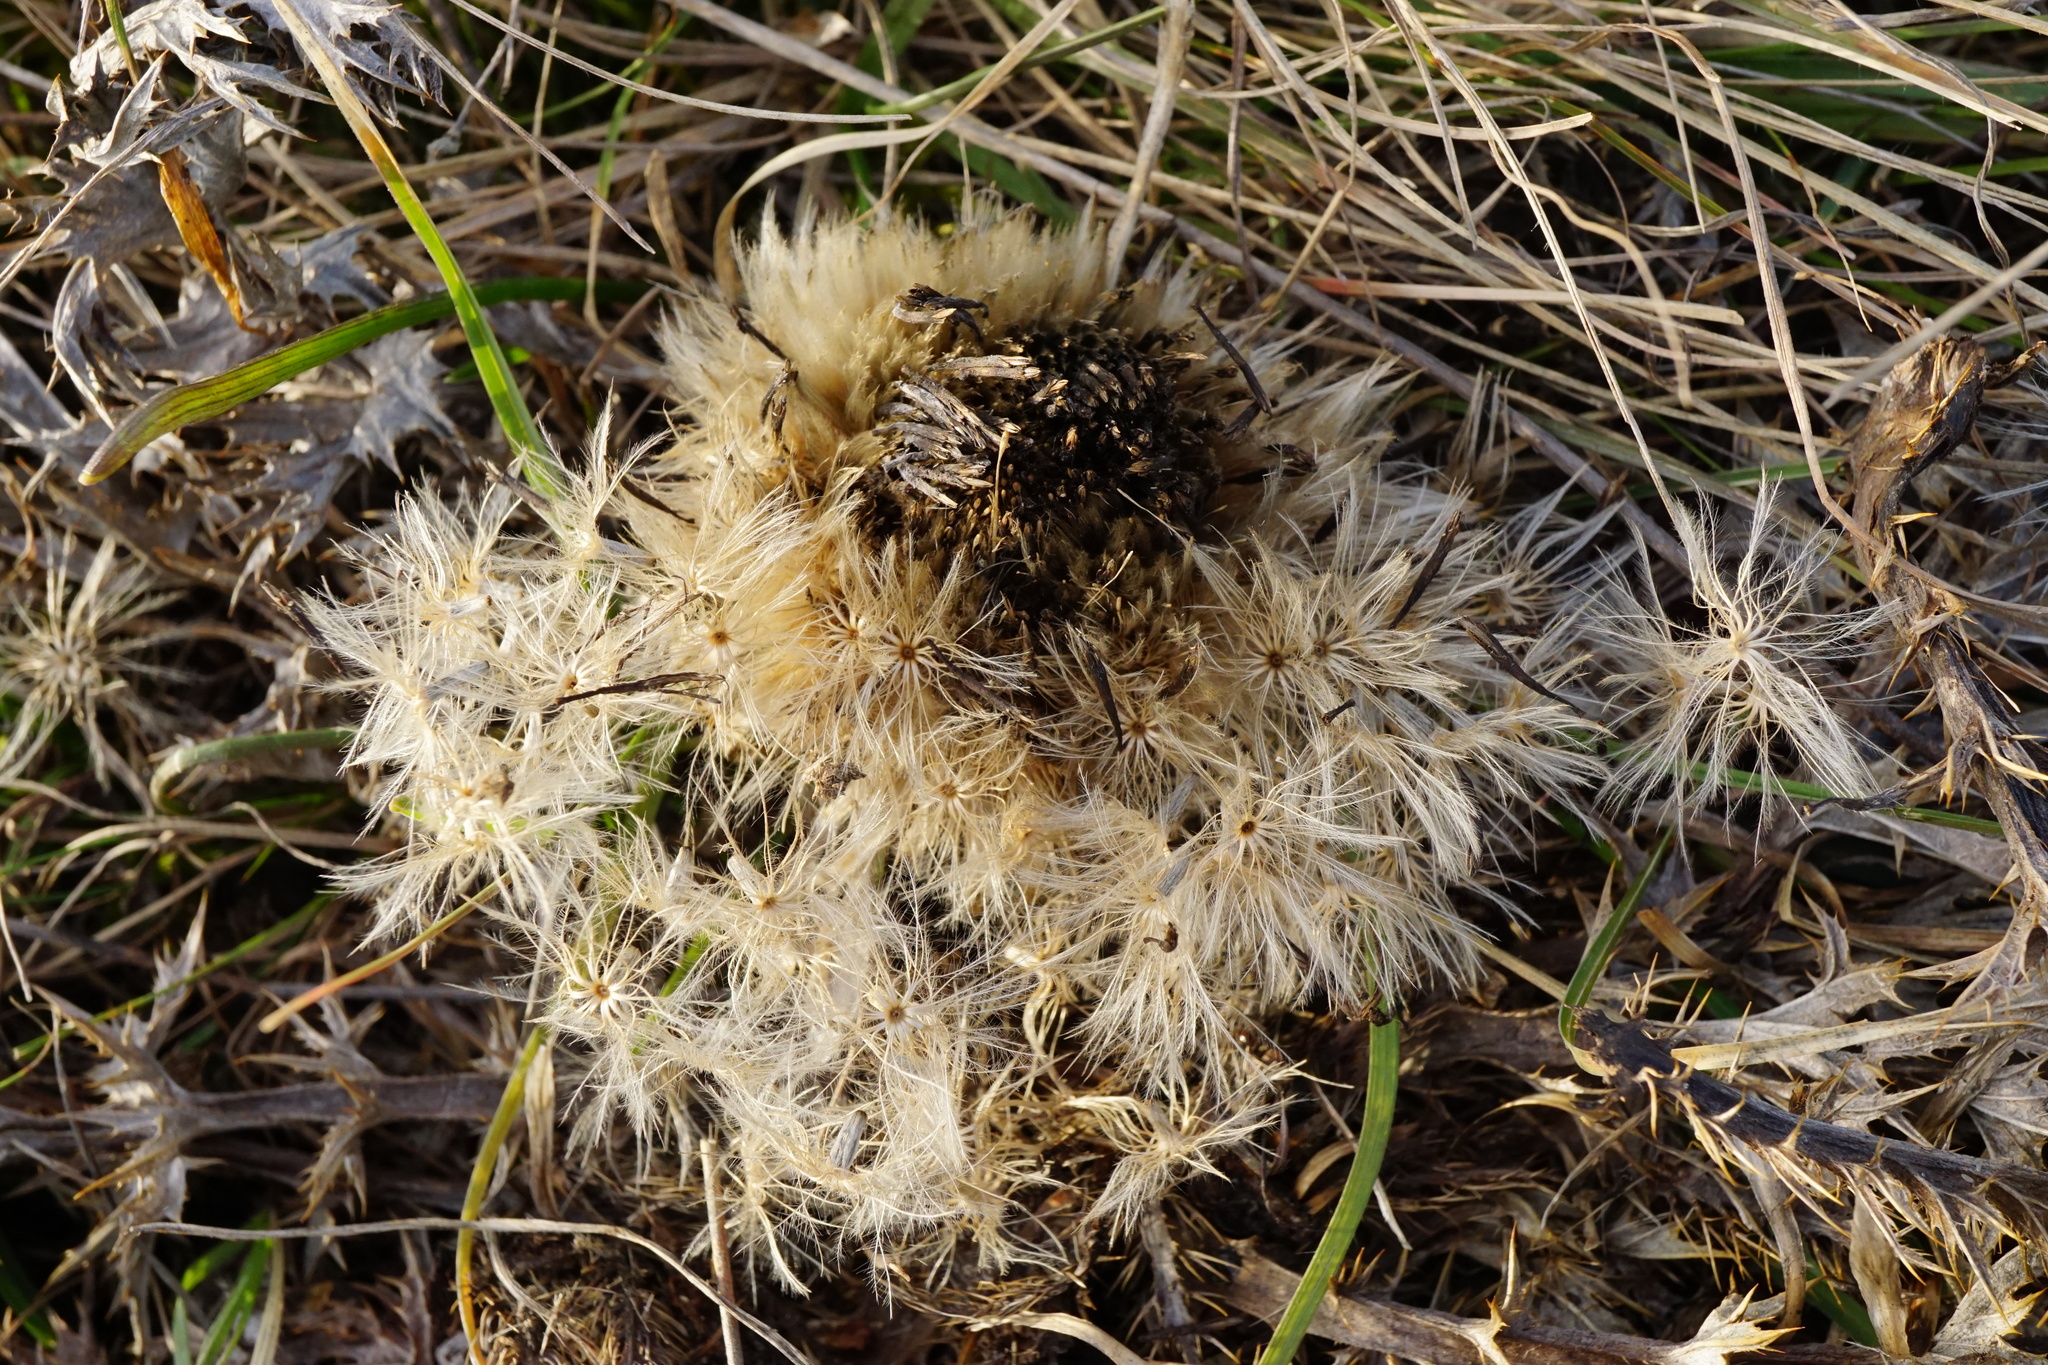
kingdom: Plantae
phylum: Tracheophyta
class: Magnoliopsida
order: Asterales
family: Asteraceae
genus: Carlina
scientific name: Carlina acaulis
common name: Stemless carline thistle
